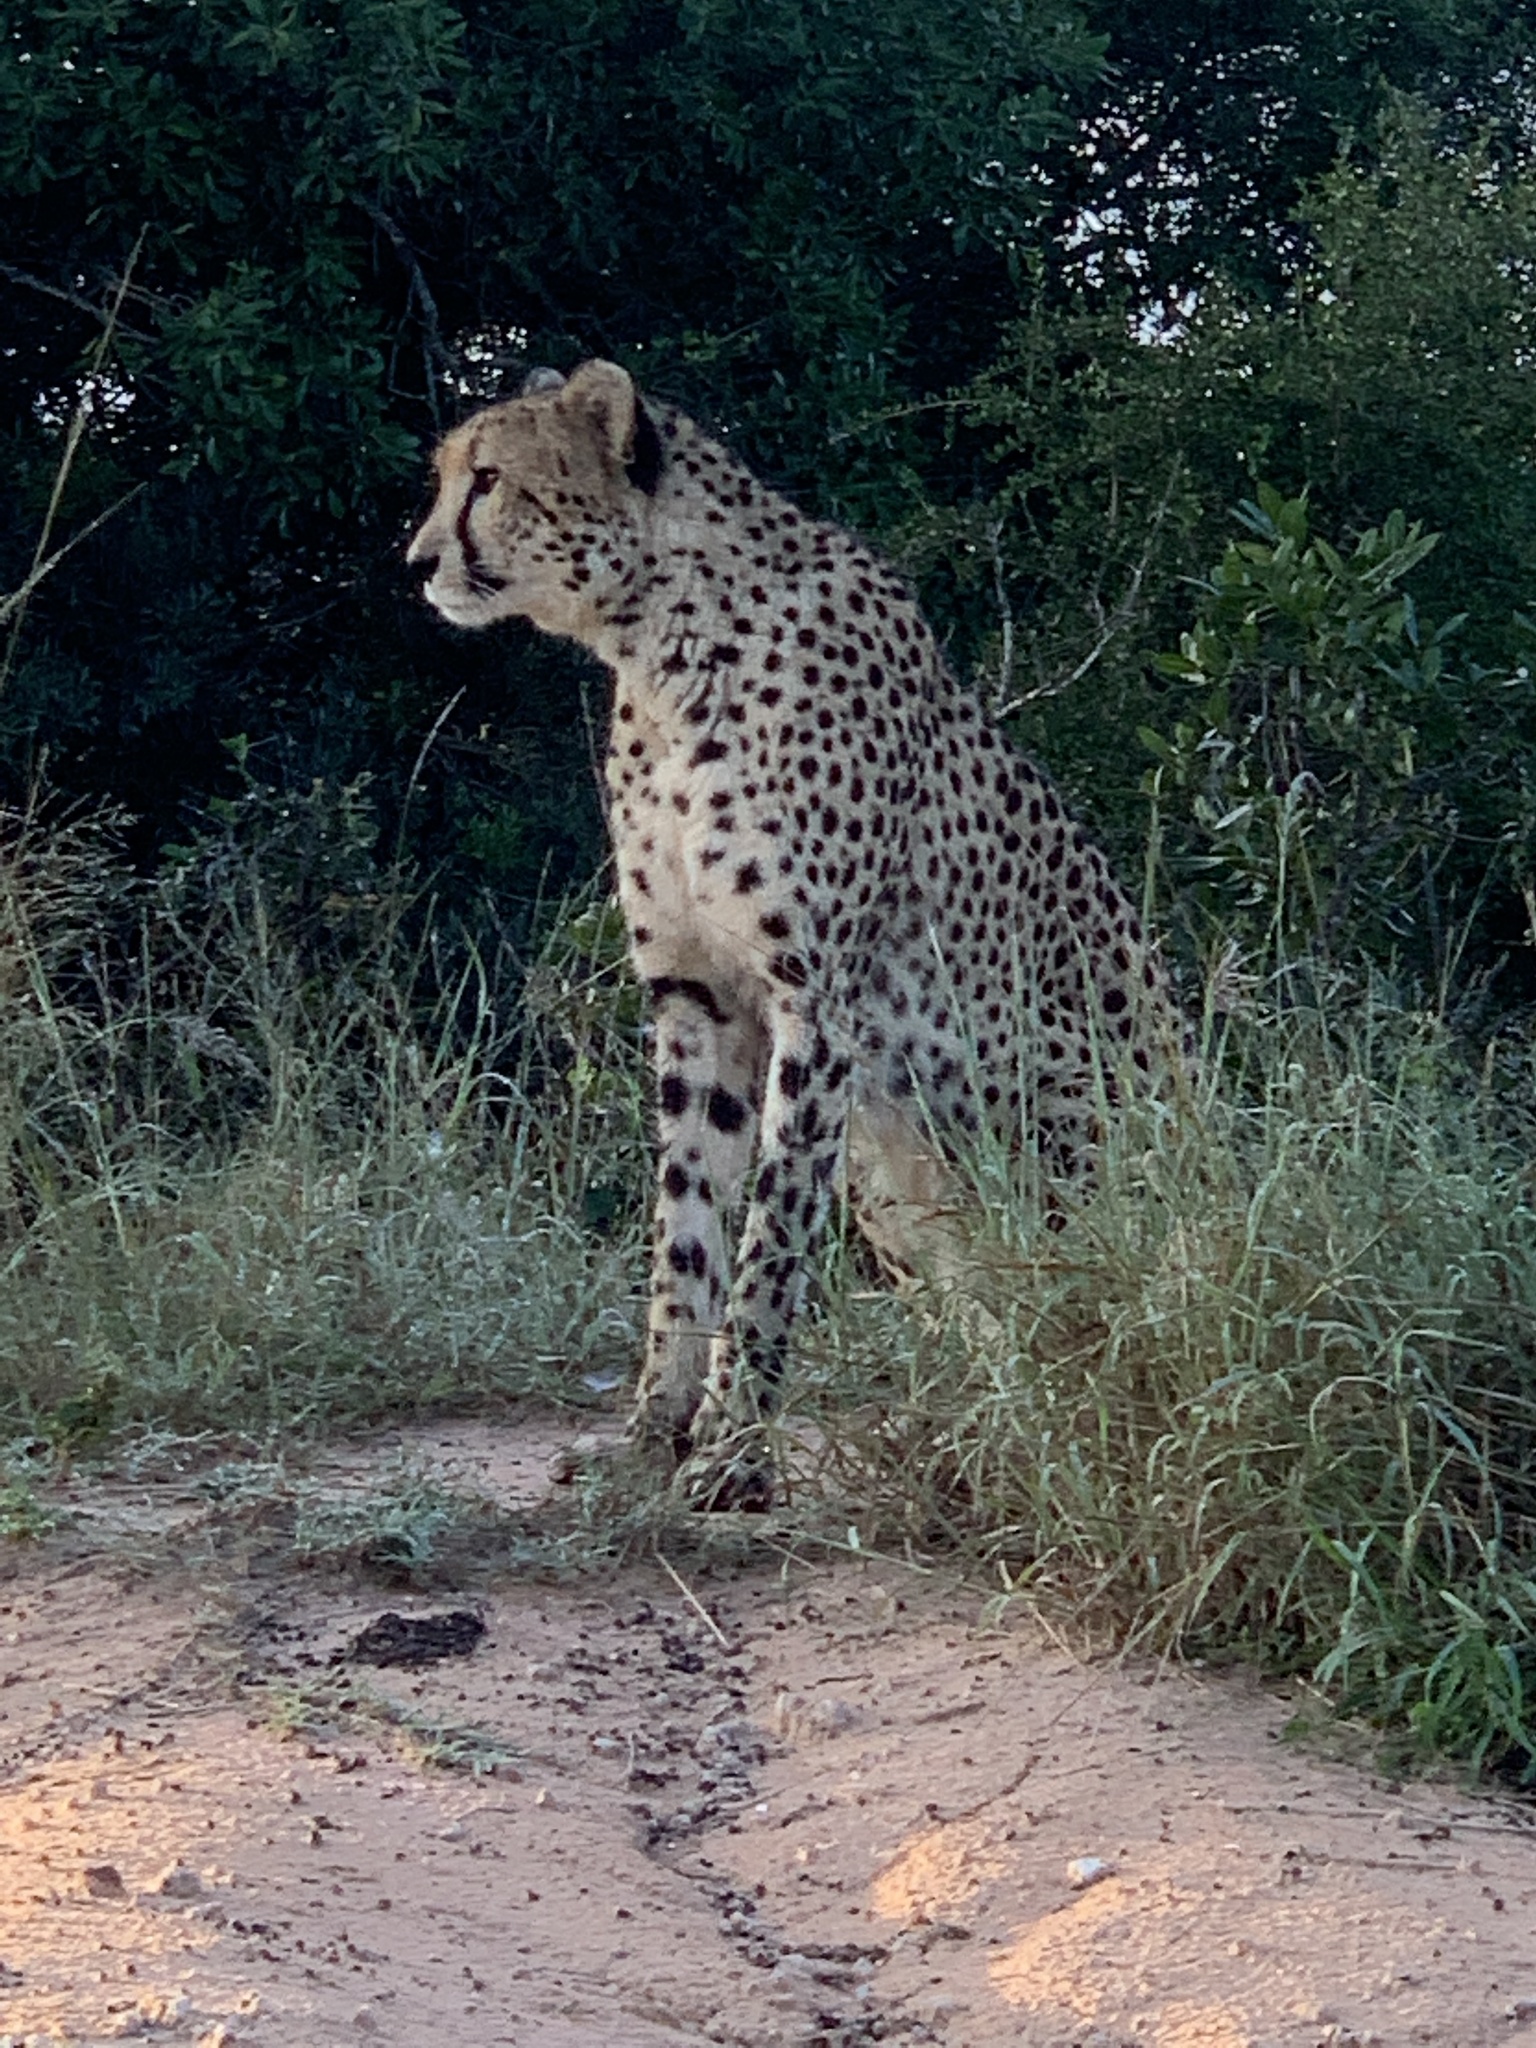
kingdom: Animalia
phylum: Chordata
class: Mammalia
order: Carnivora
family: Felidae
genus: Acinonyx
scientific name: Acinonyx jubatus
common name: Cheetah
